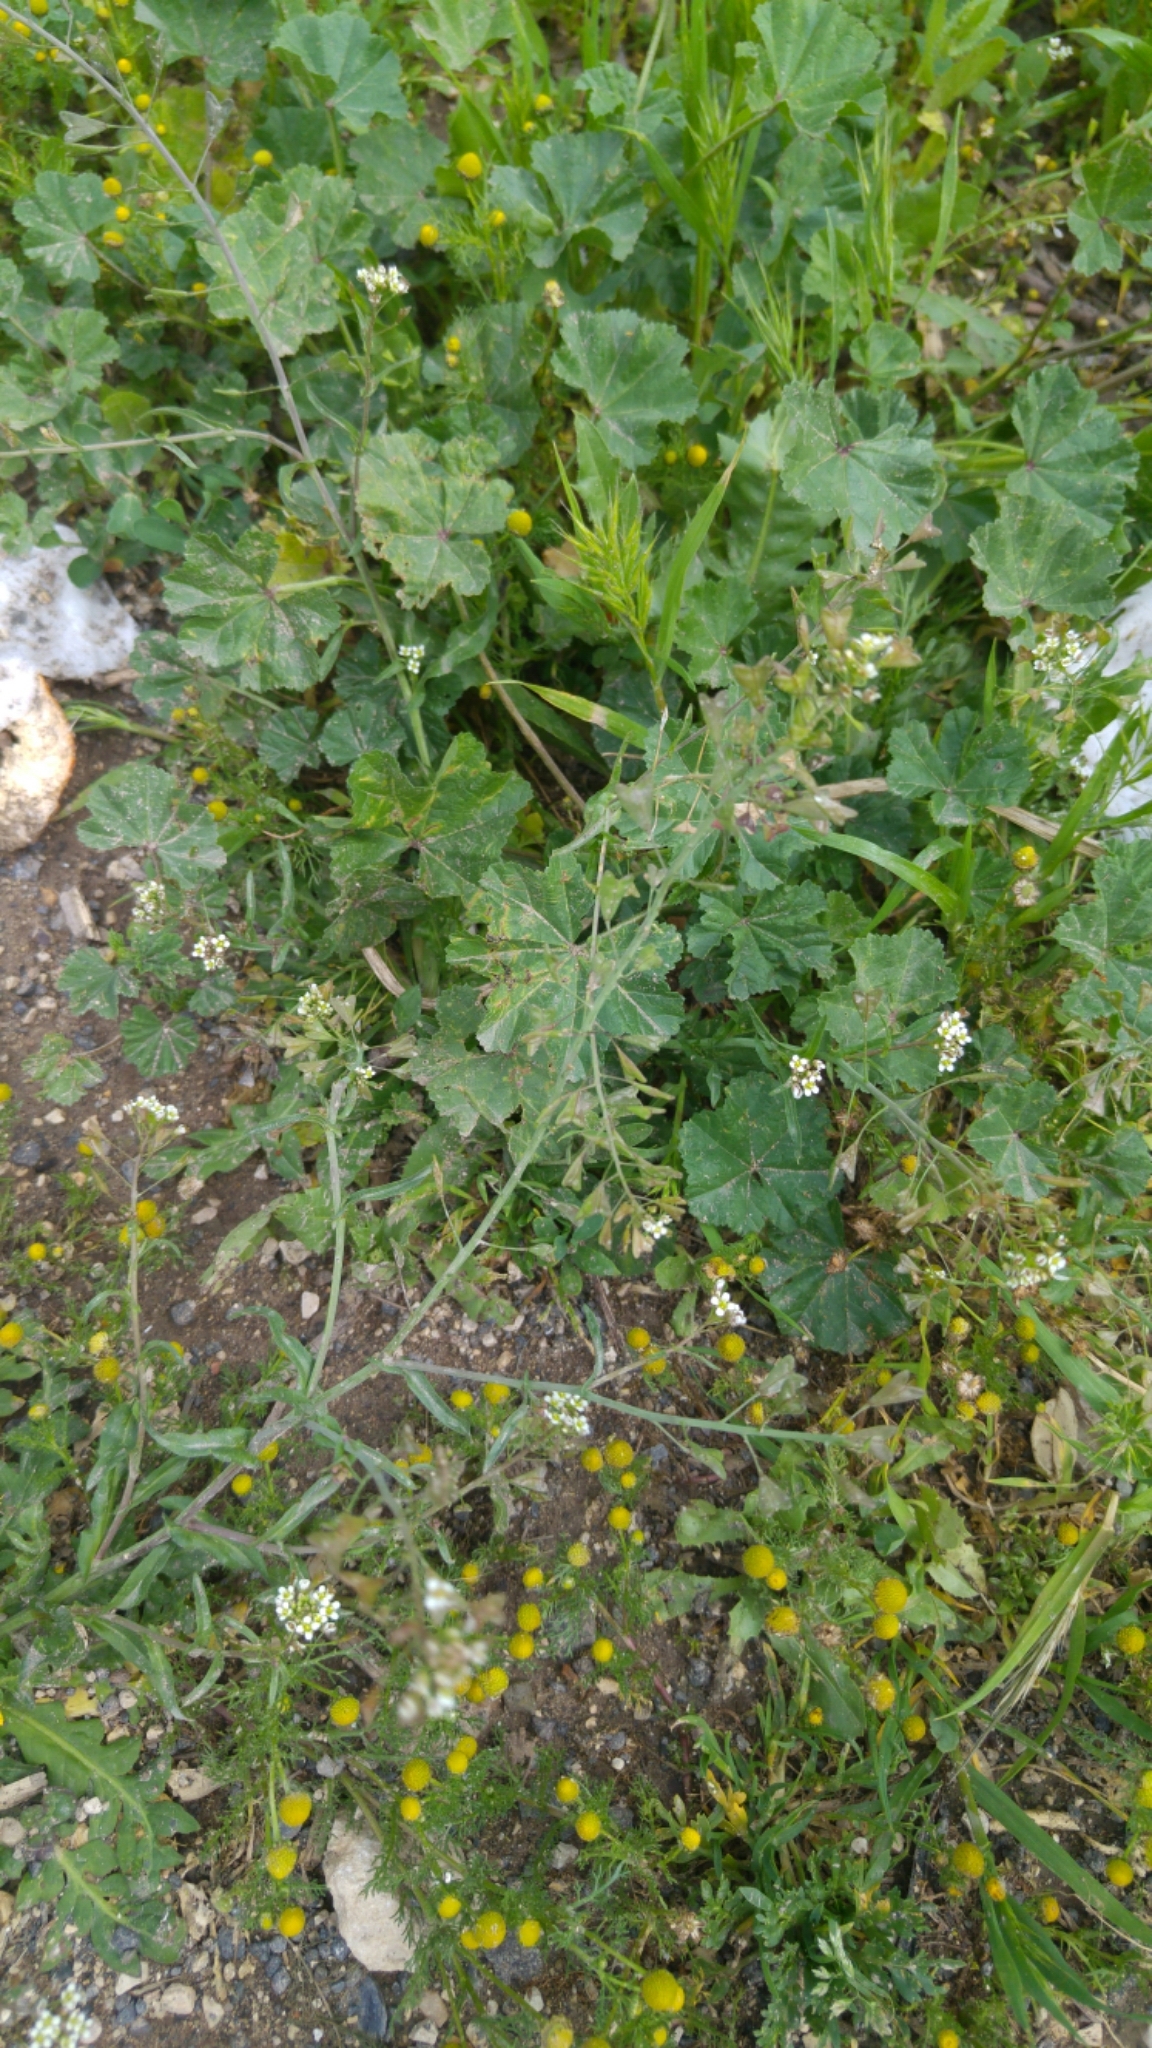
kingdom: Plantae
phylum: Tracheophyta
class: Magnoliopsida
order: Brassicales
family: Brassicaceae
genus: Capsella
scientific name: Capsella bursa-pastoris
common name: Shepherd's purse
